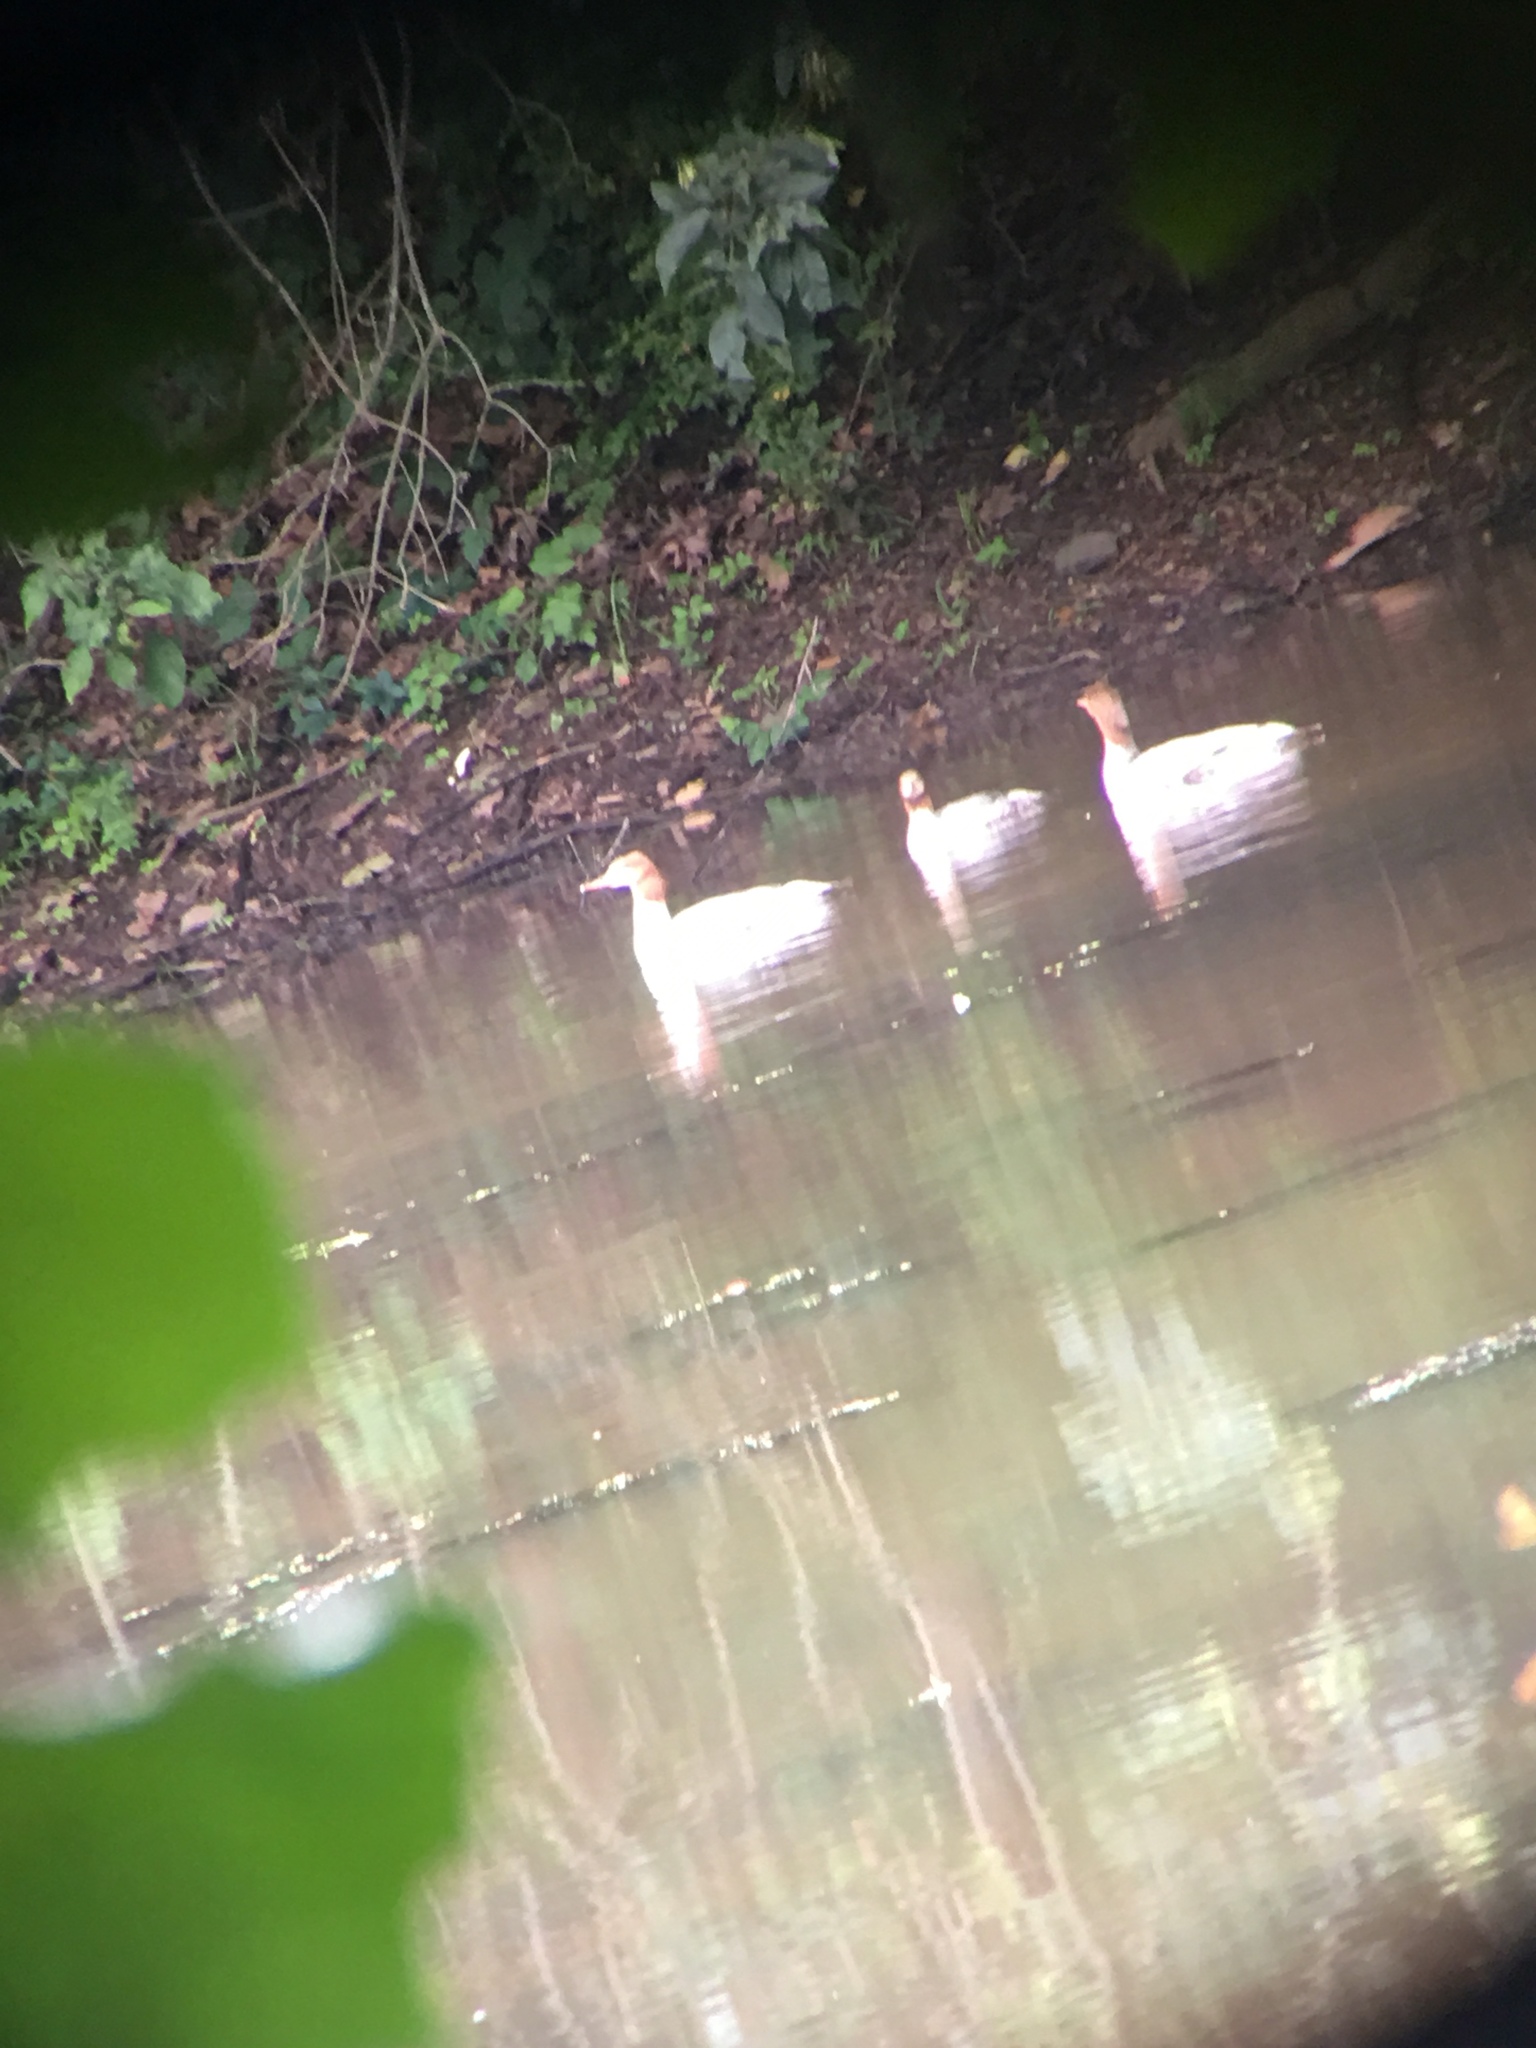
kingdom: Animalia
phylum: Chordata
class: Aves
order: Anseriformes
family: Anatidae
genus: Mergus
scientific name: Mergus merganser
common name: Common merganser
